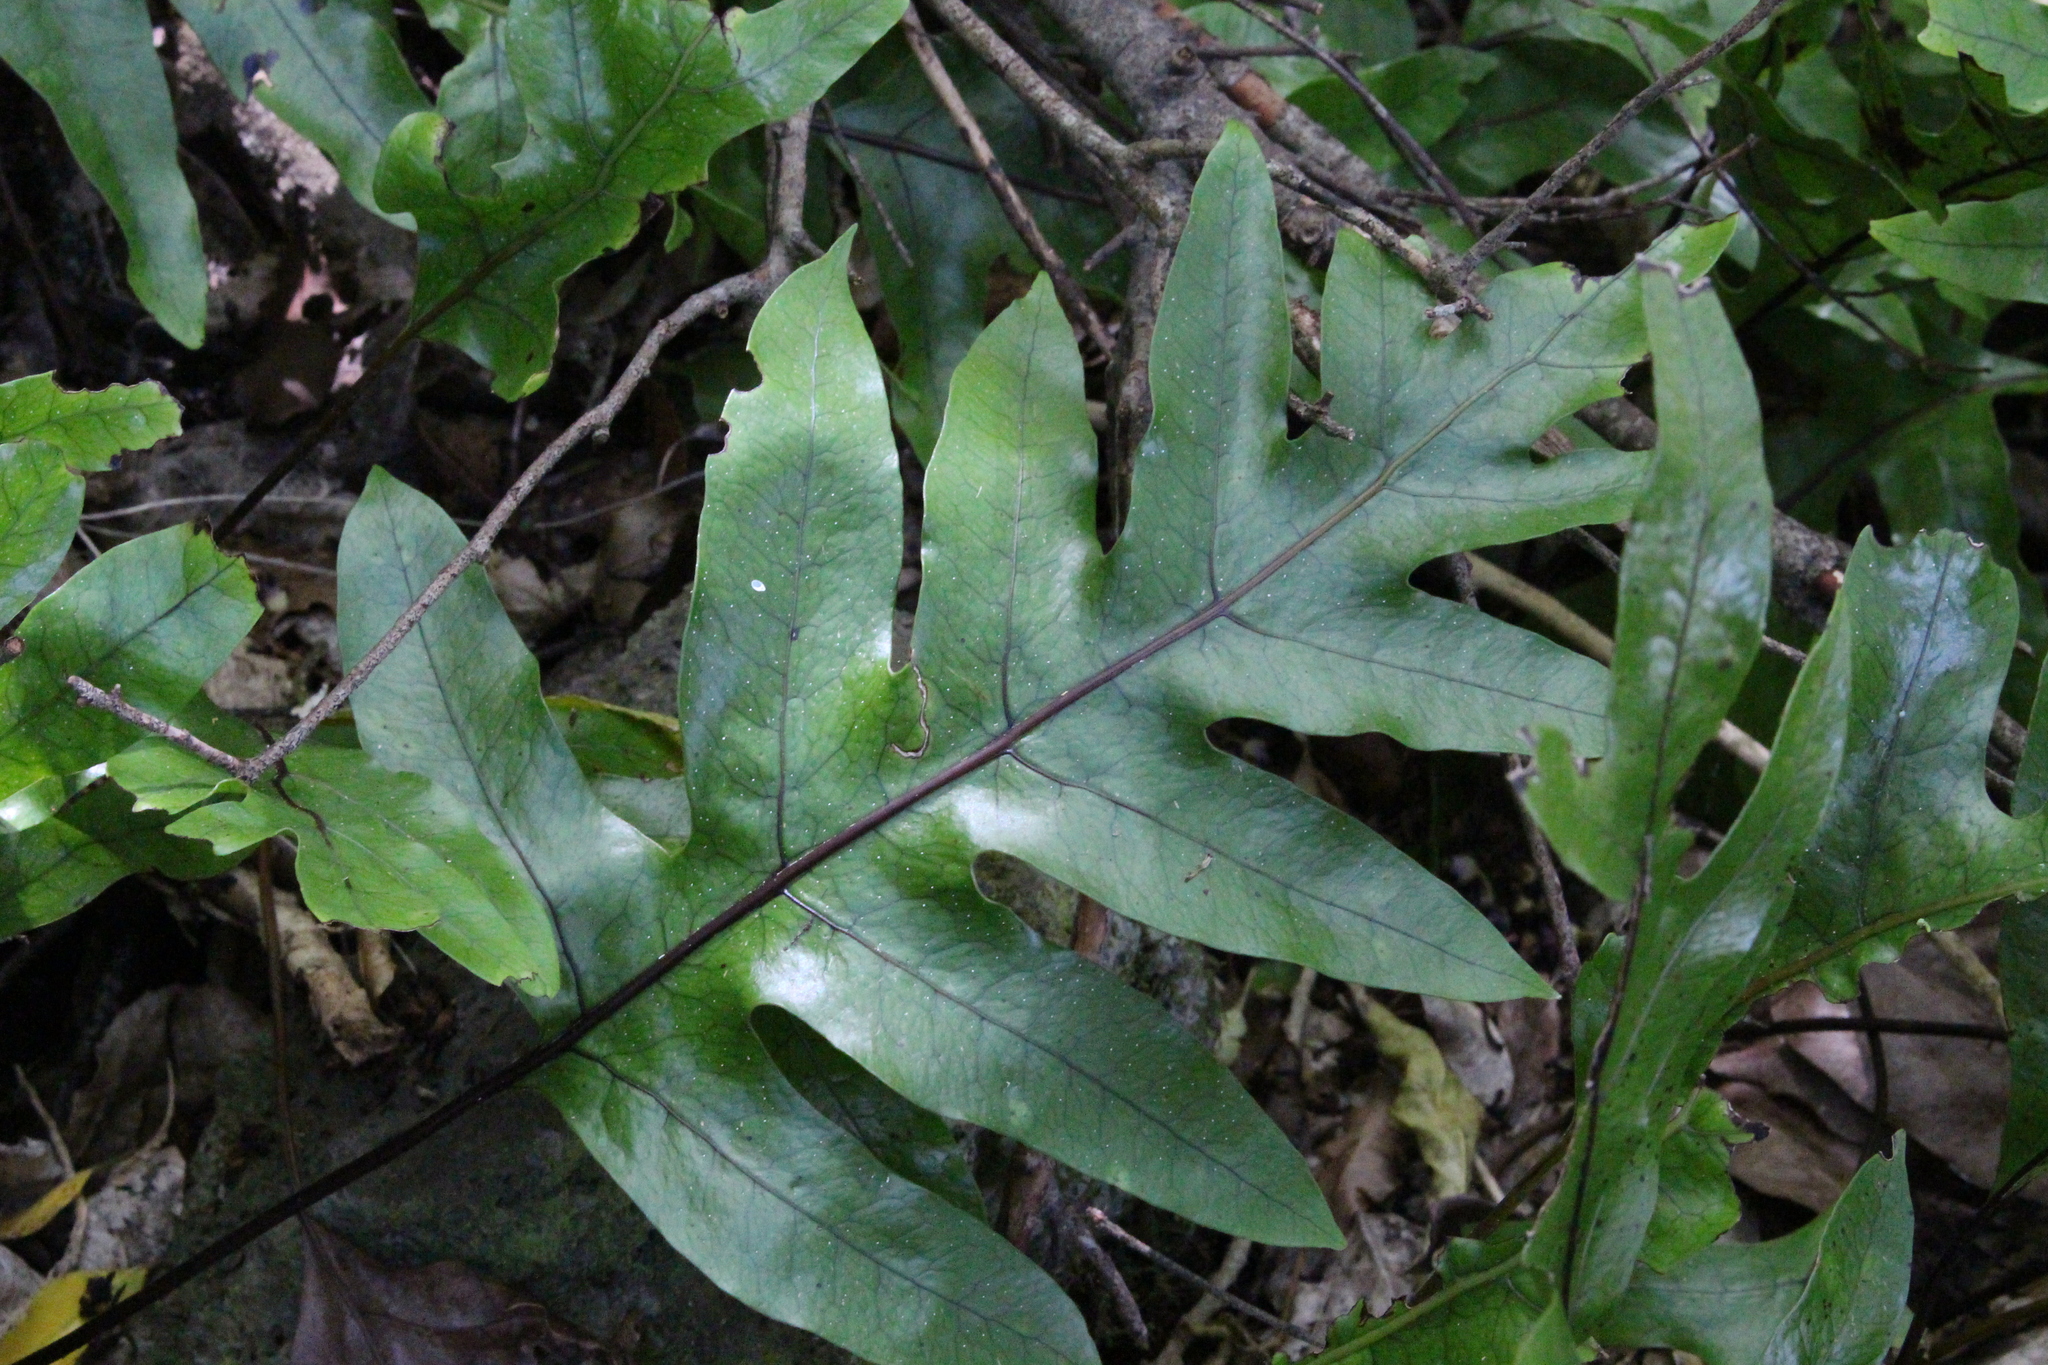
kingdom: Plantae
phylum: Tracheophyta
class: Polypodiopsida
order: Polypodiales
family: Polypodiaceae
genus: Lecanopteris
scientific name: Lecanopteris pustulata
